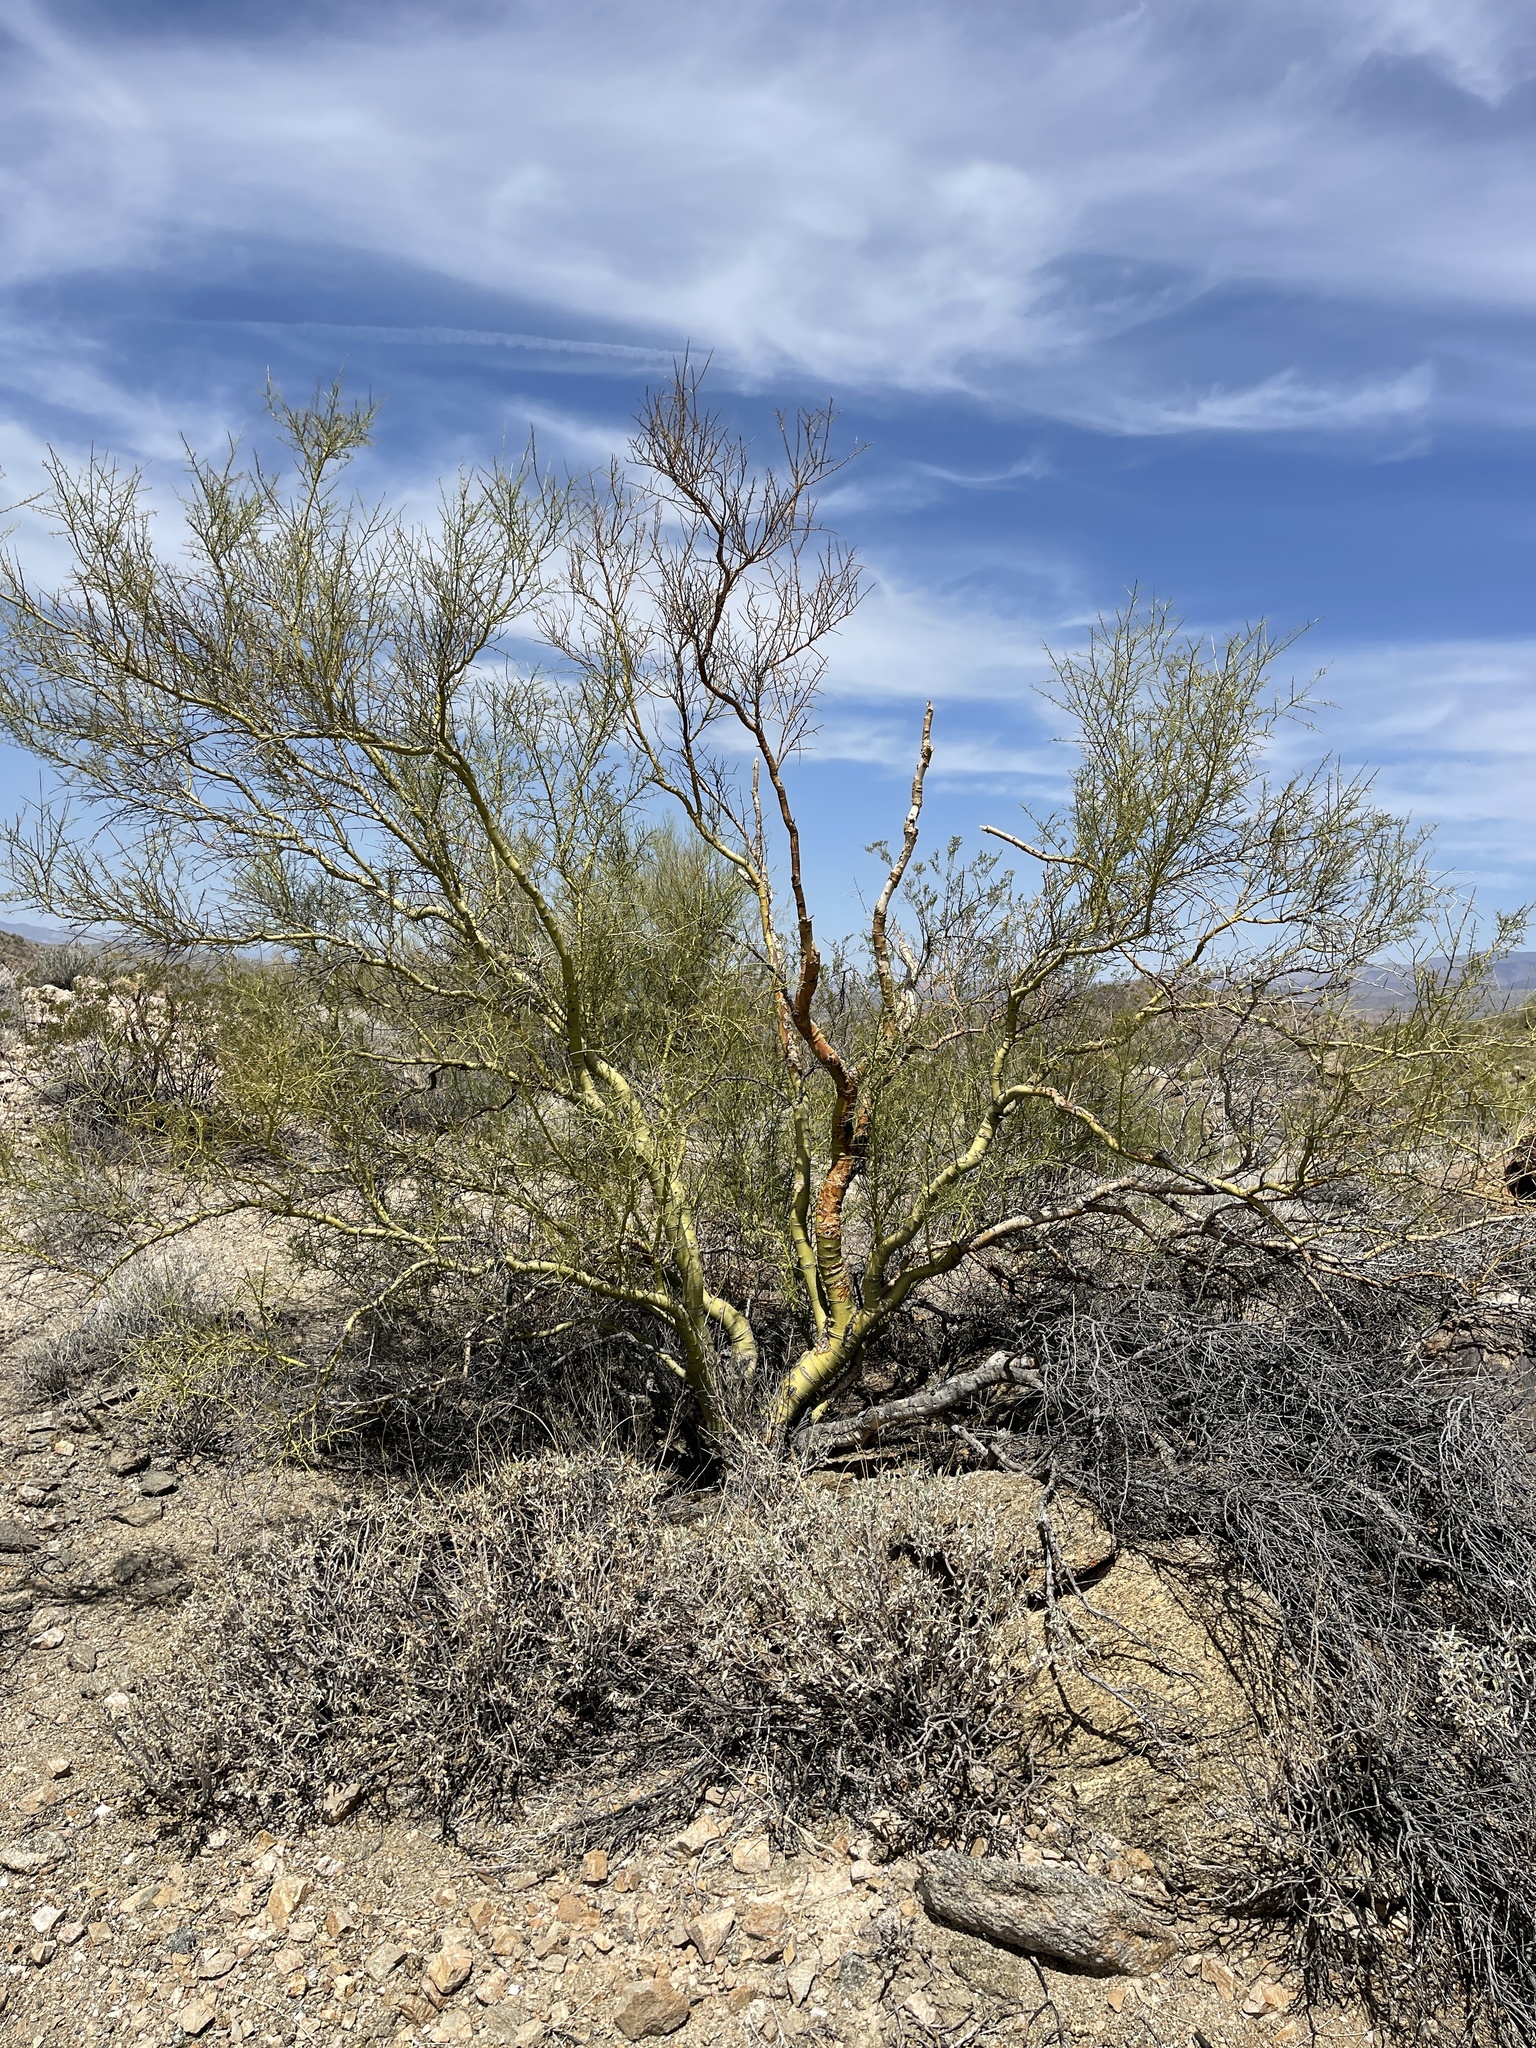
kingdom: Plantae
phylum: Tracheophyta
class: Magnoliopsida
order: Fabales
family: Fabaceae
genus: Parkinsonia
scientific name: Parkinsonia microphylla
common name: Yellow paloverde
